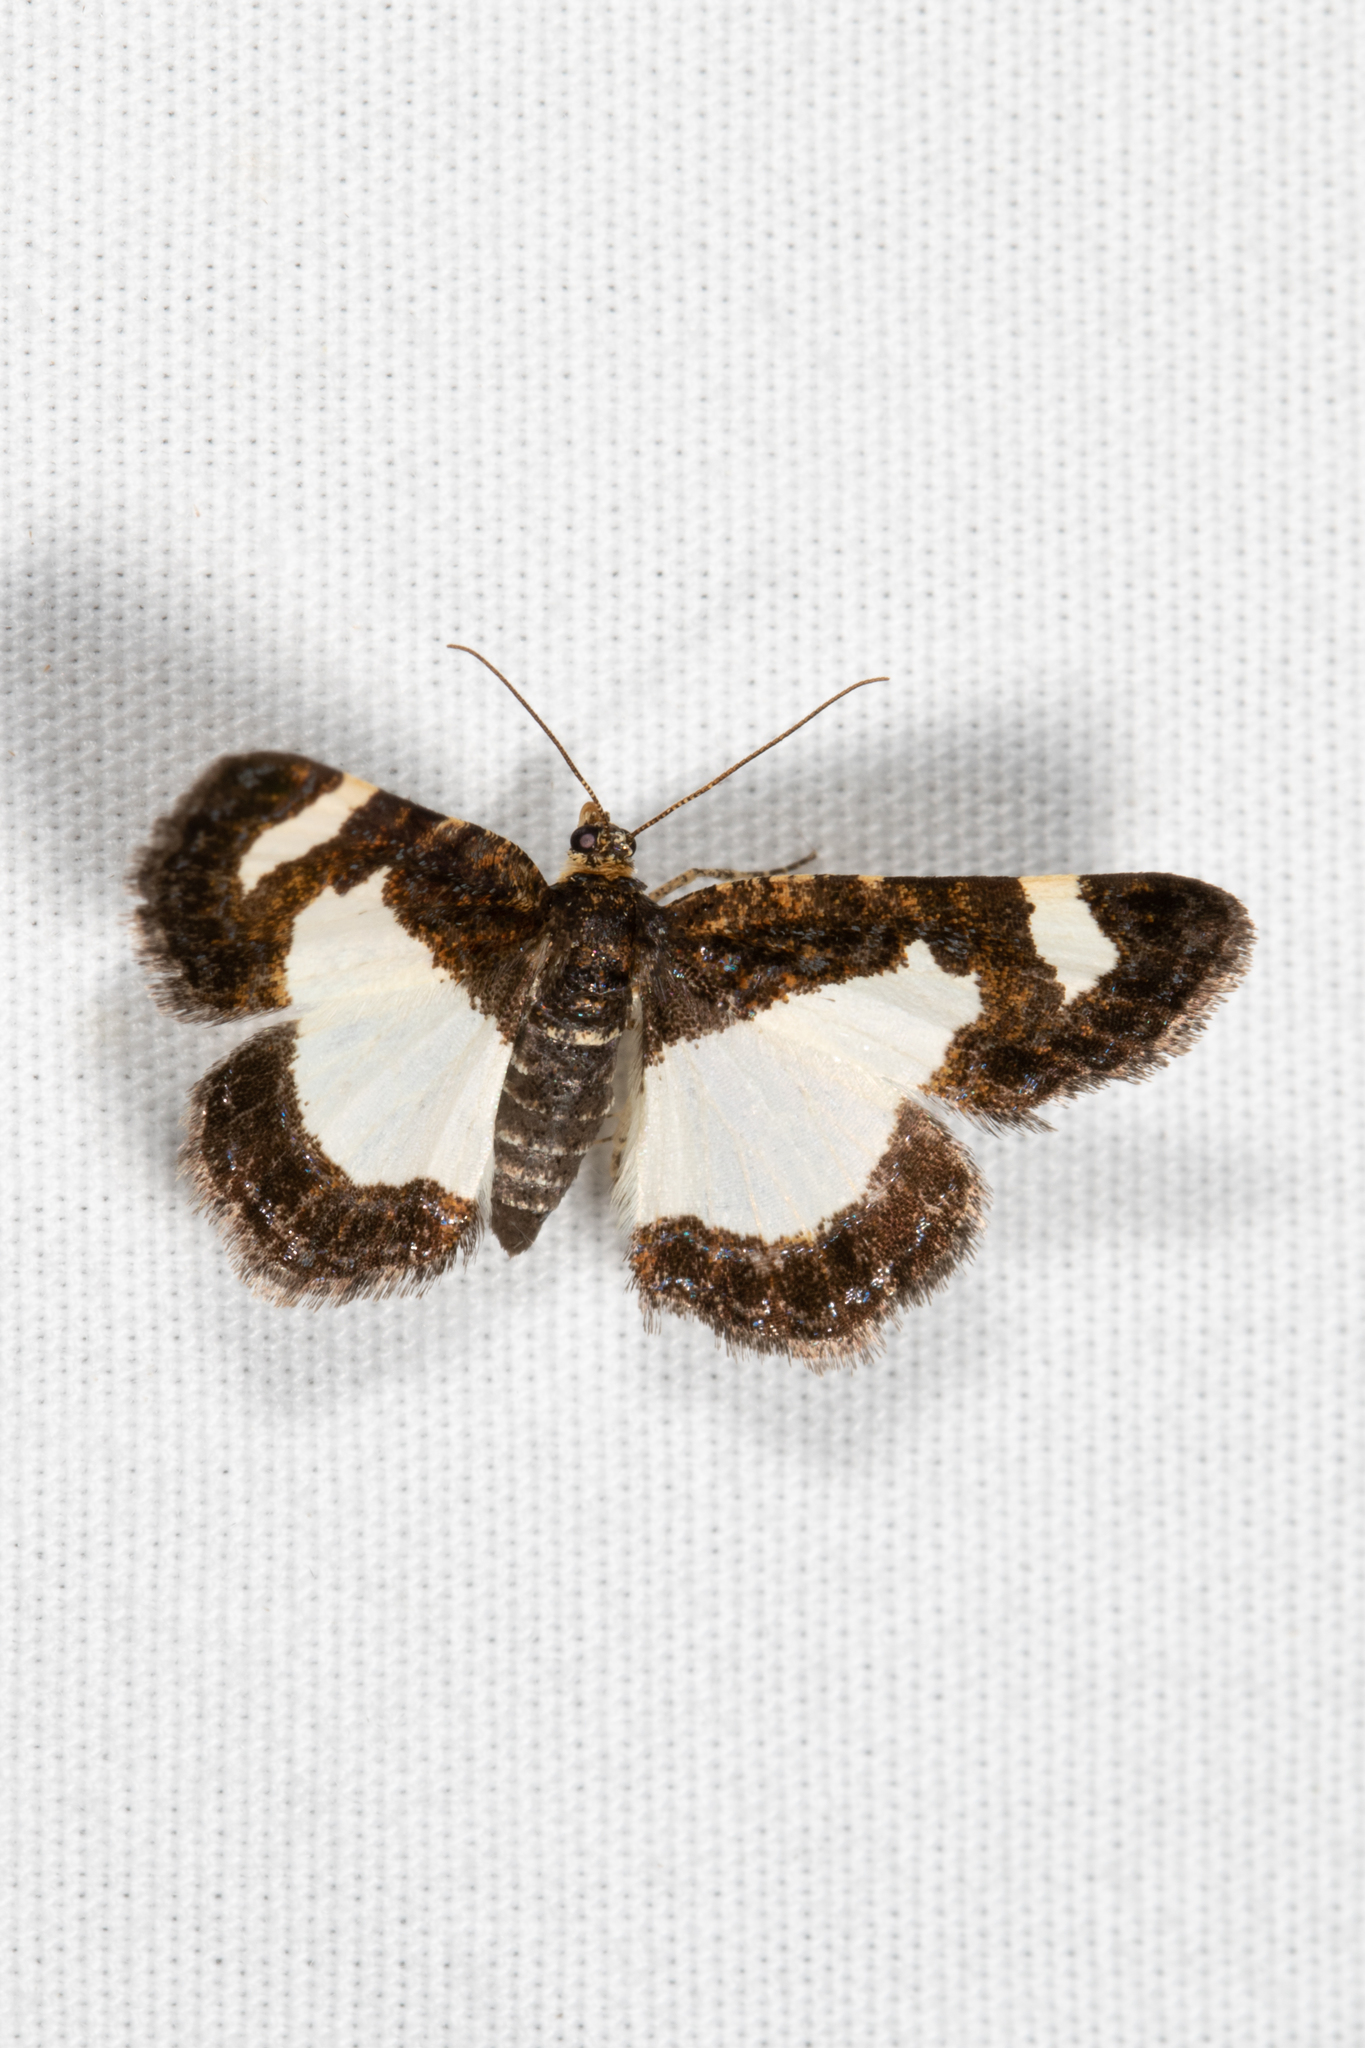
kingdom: Animalia
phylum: Arthropoda
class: Insecta
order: Lepidoptera
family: Geometridae
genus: Heliomata
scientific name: Heliomata cycladata
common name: Common spring moth
